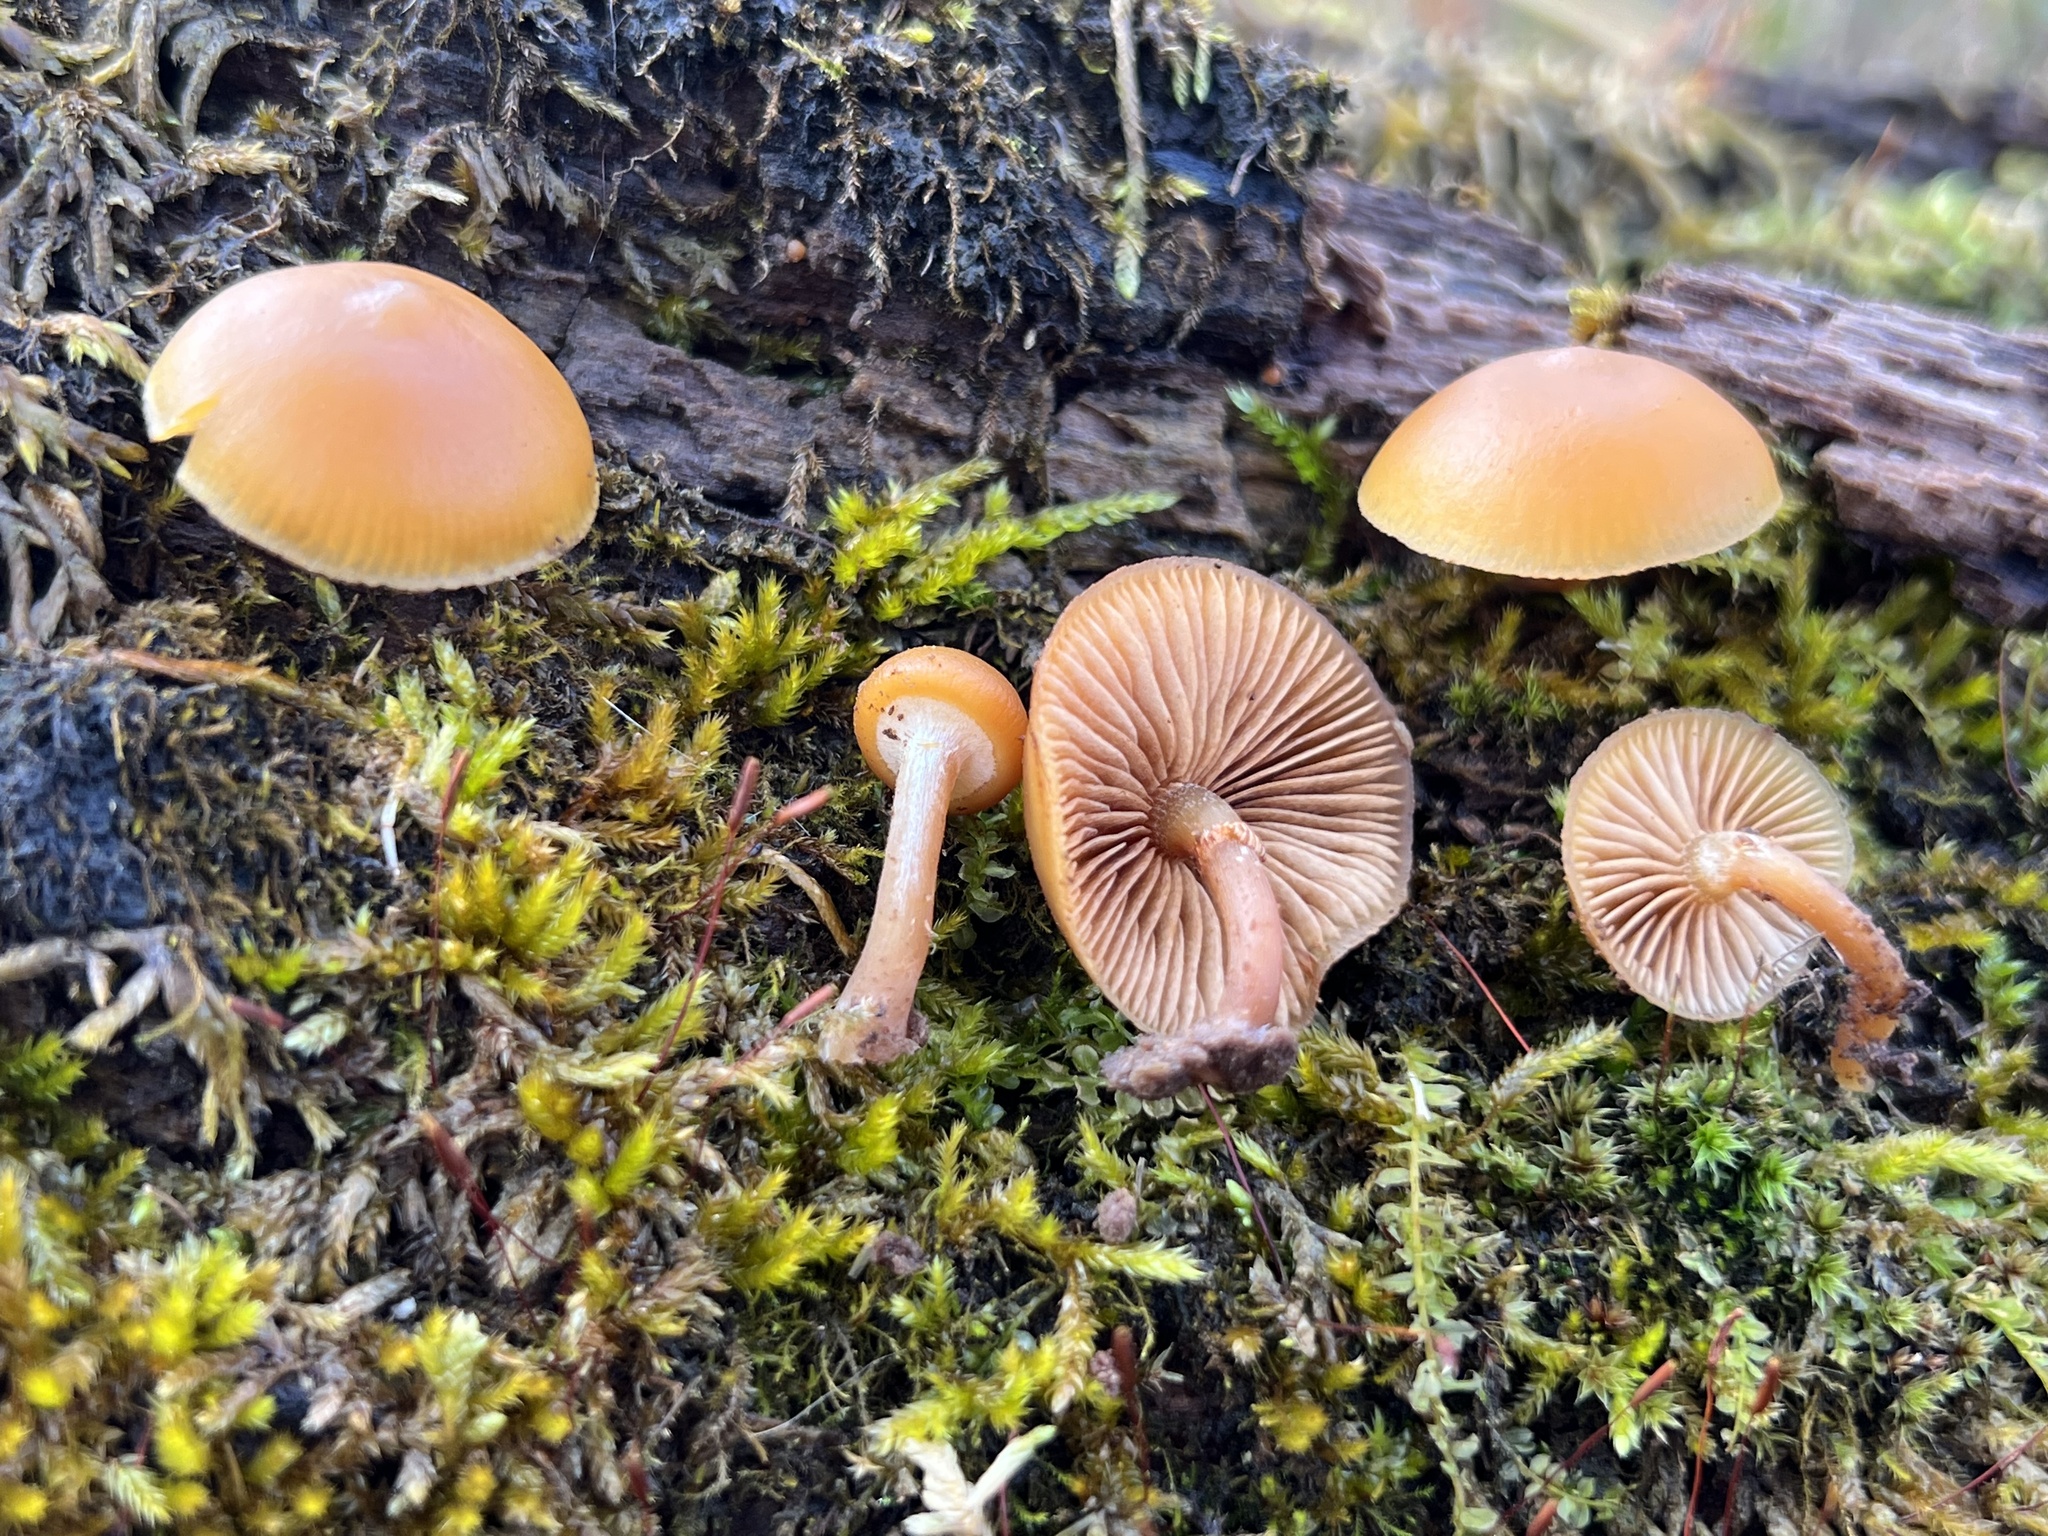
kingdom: Fungi
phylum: Basidiomycota
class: Agaricomycetes
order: Agaricales
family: Hymenogastraceae
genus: Galerina
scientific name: Galerina marginata
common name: Funeral bell
